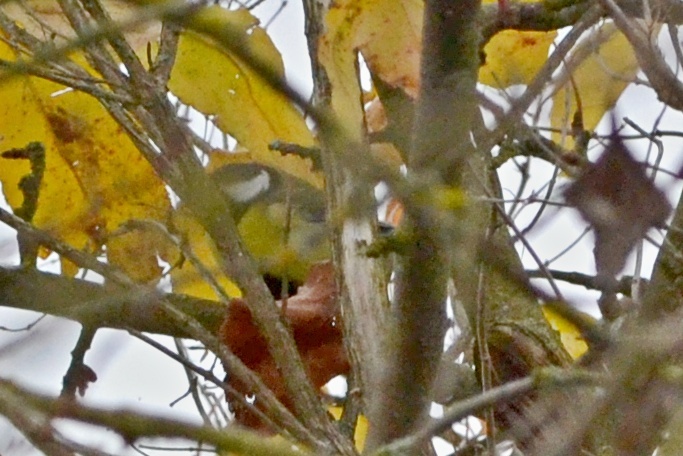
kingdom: Animalia
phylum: Chordata
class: Aves
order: Passeriformes
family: Paridae
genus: Parus
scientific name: Parus major
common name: Great tit
